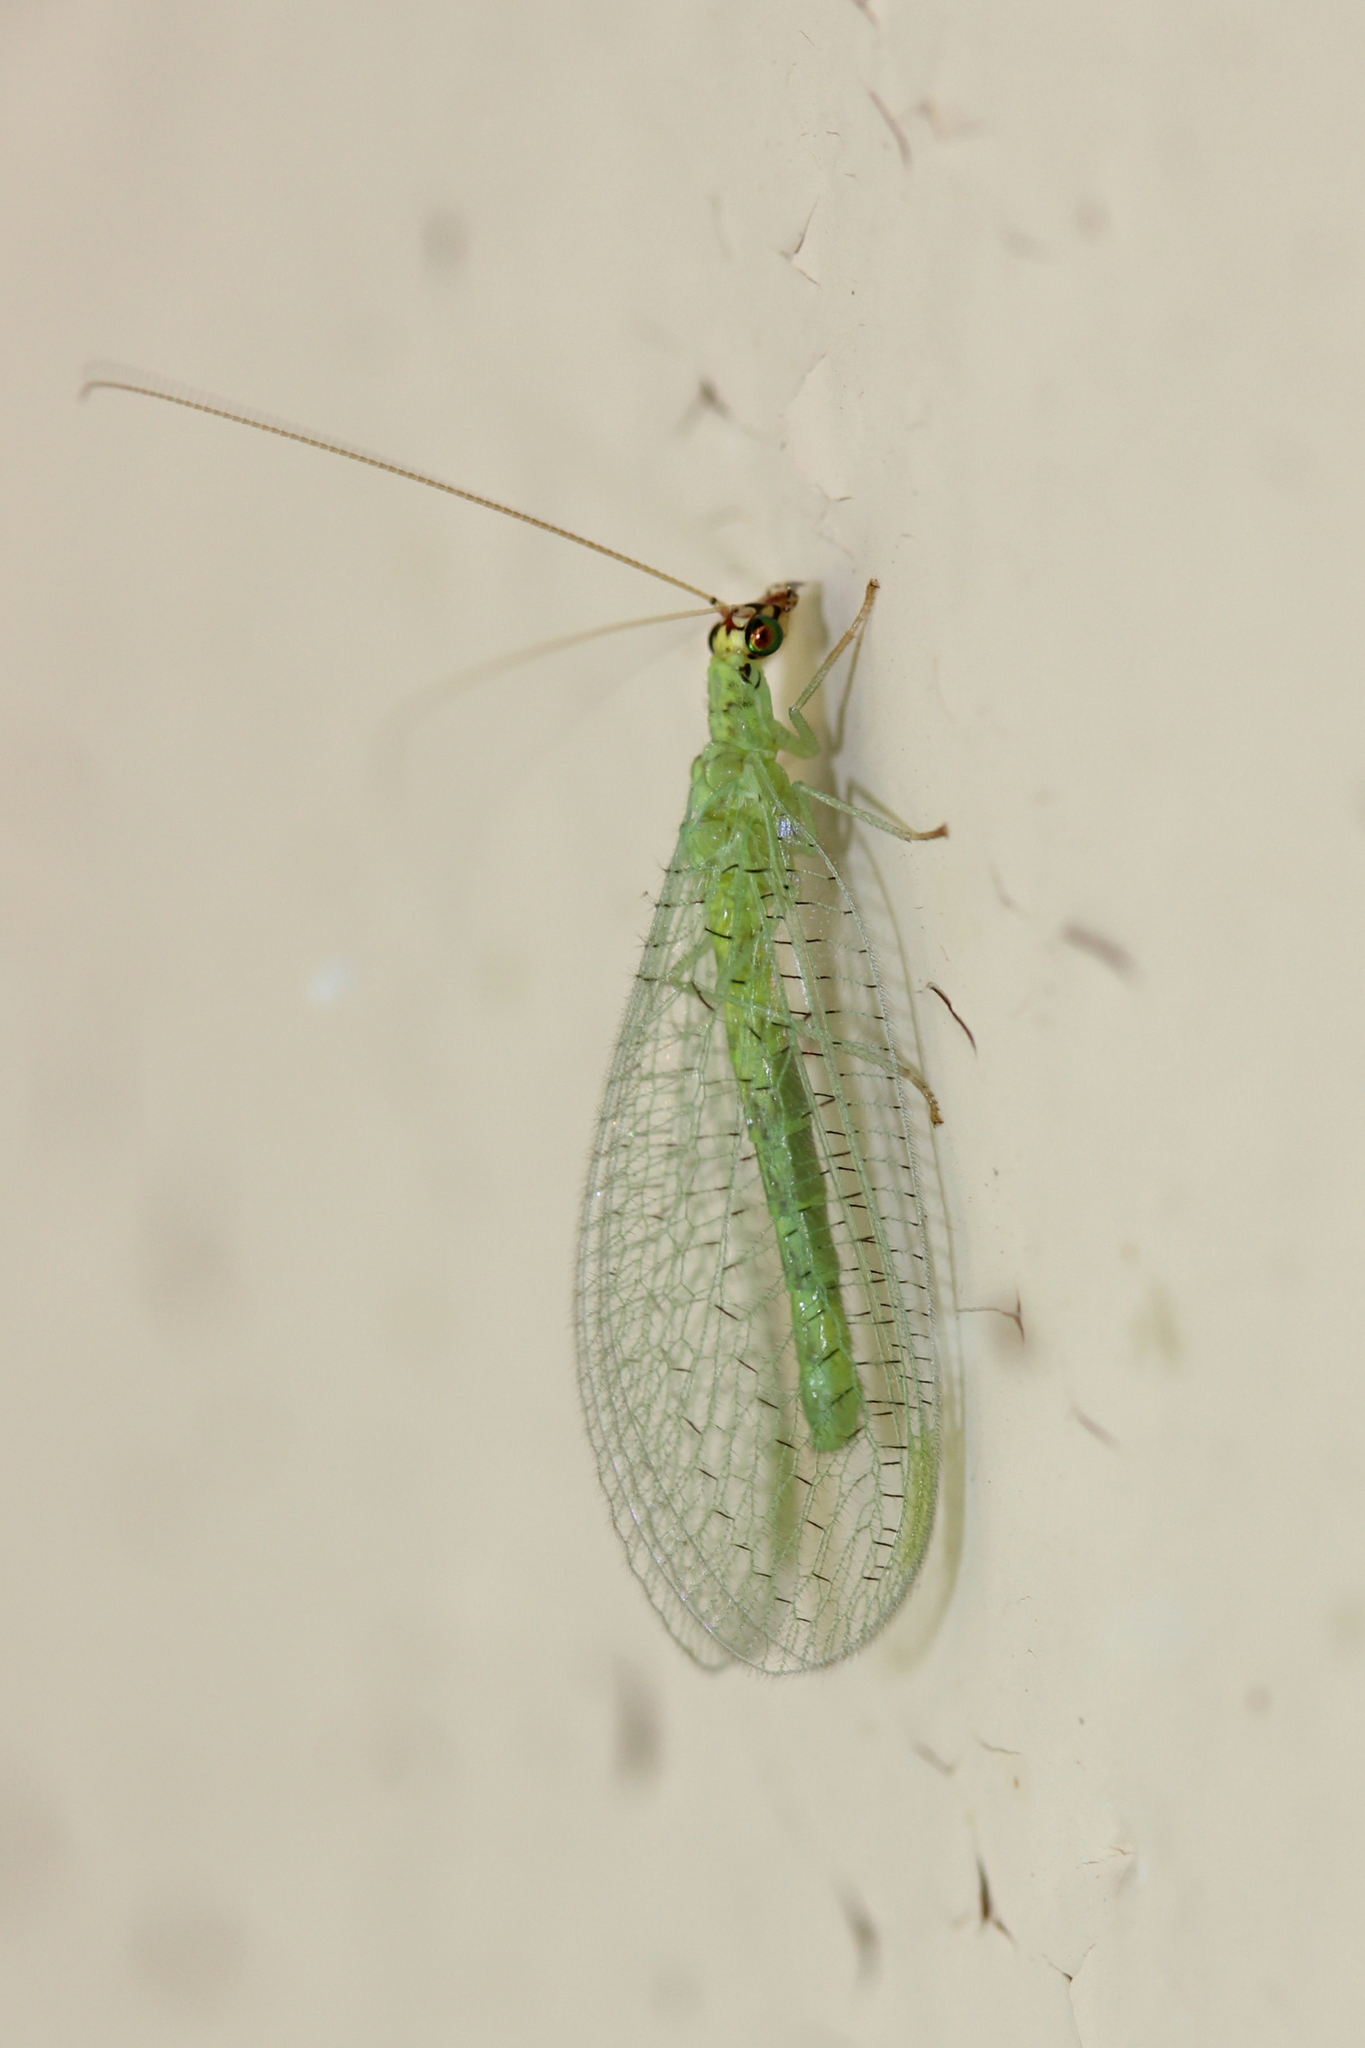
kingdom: Animalia
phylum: Arthropoda
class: Insecta
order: Neuroptera
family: Chrysopidae
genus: Chrysopa
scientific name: Chrysopa oculata
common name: Golden-eyed lacewing
